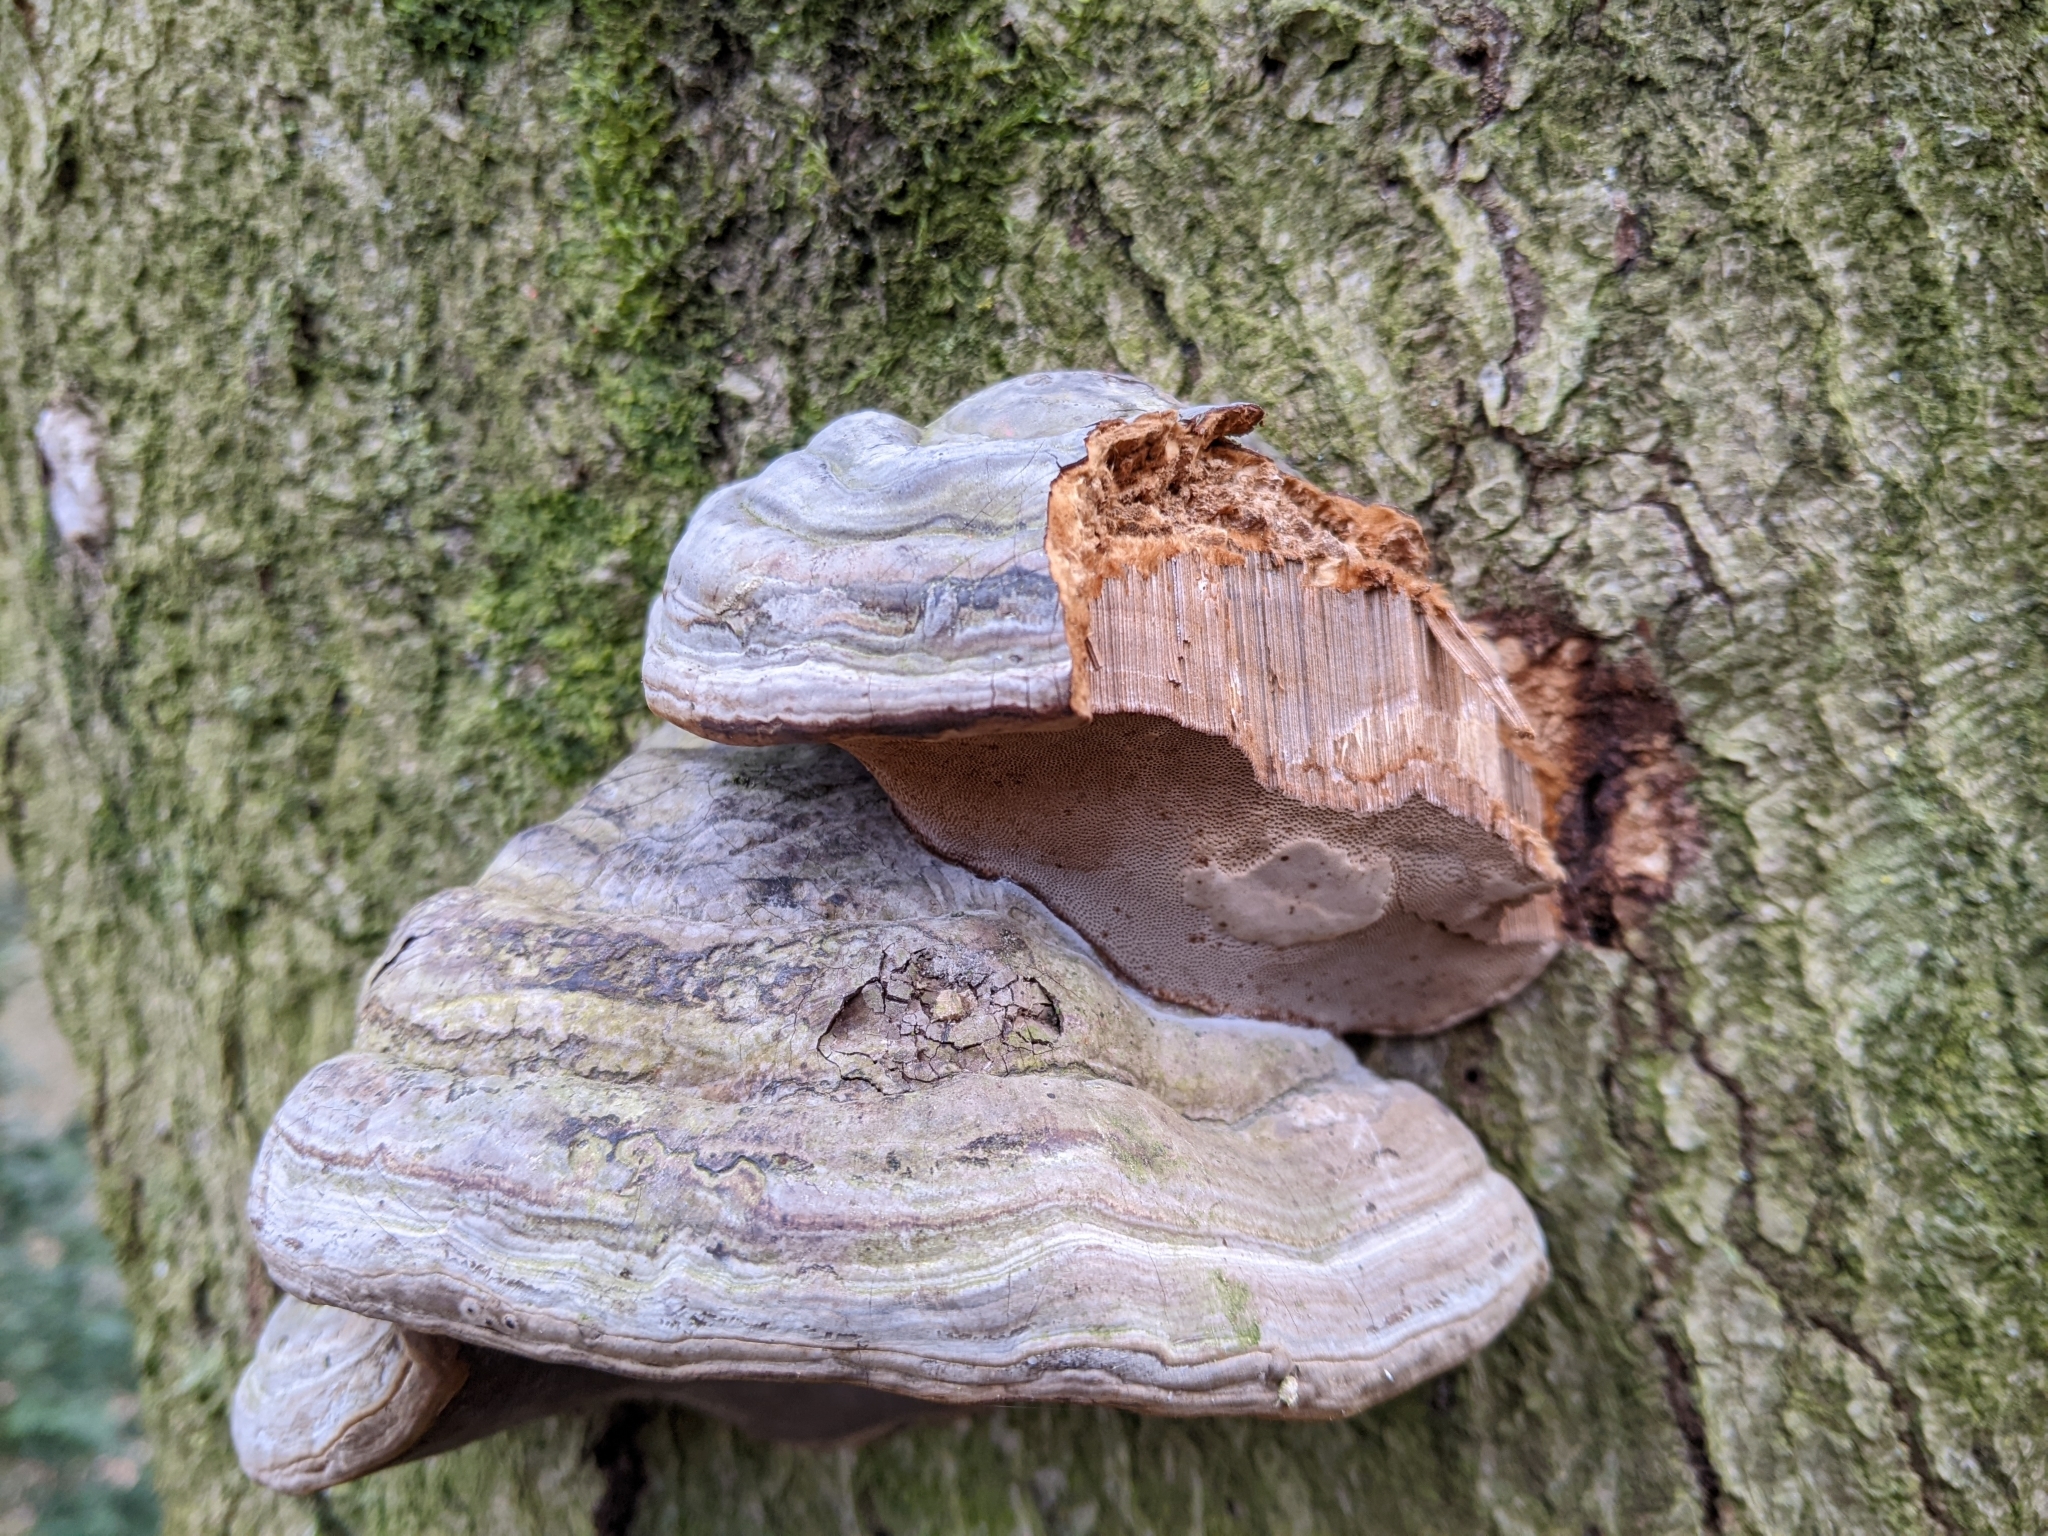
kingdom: Fungi
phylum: Basidiomycota
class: Agaricomycetes
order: Polyporales
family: Polyporaceae
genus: Fomes
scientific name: Fomes fomentarius
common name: Hoof fungus
